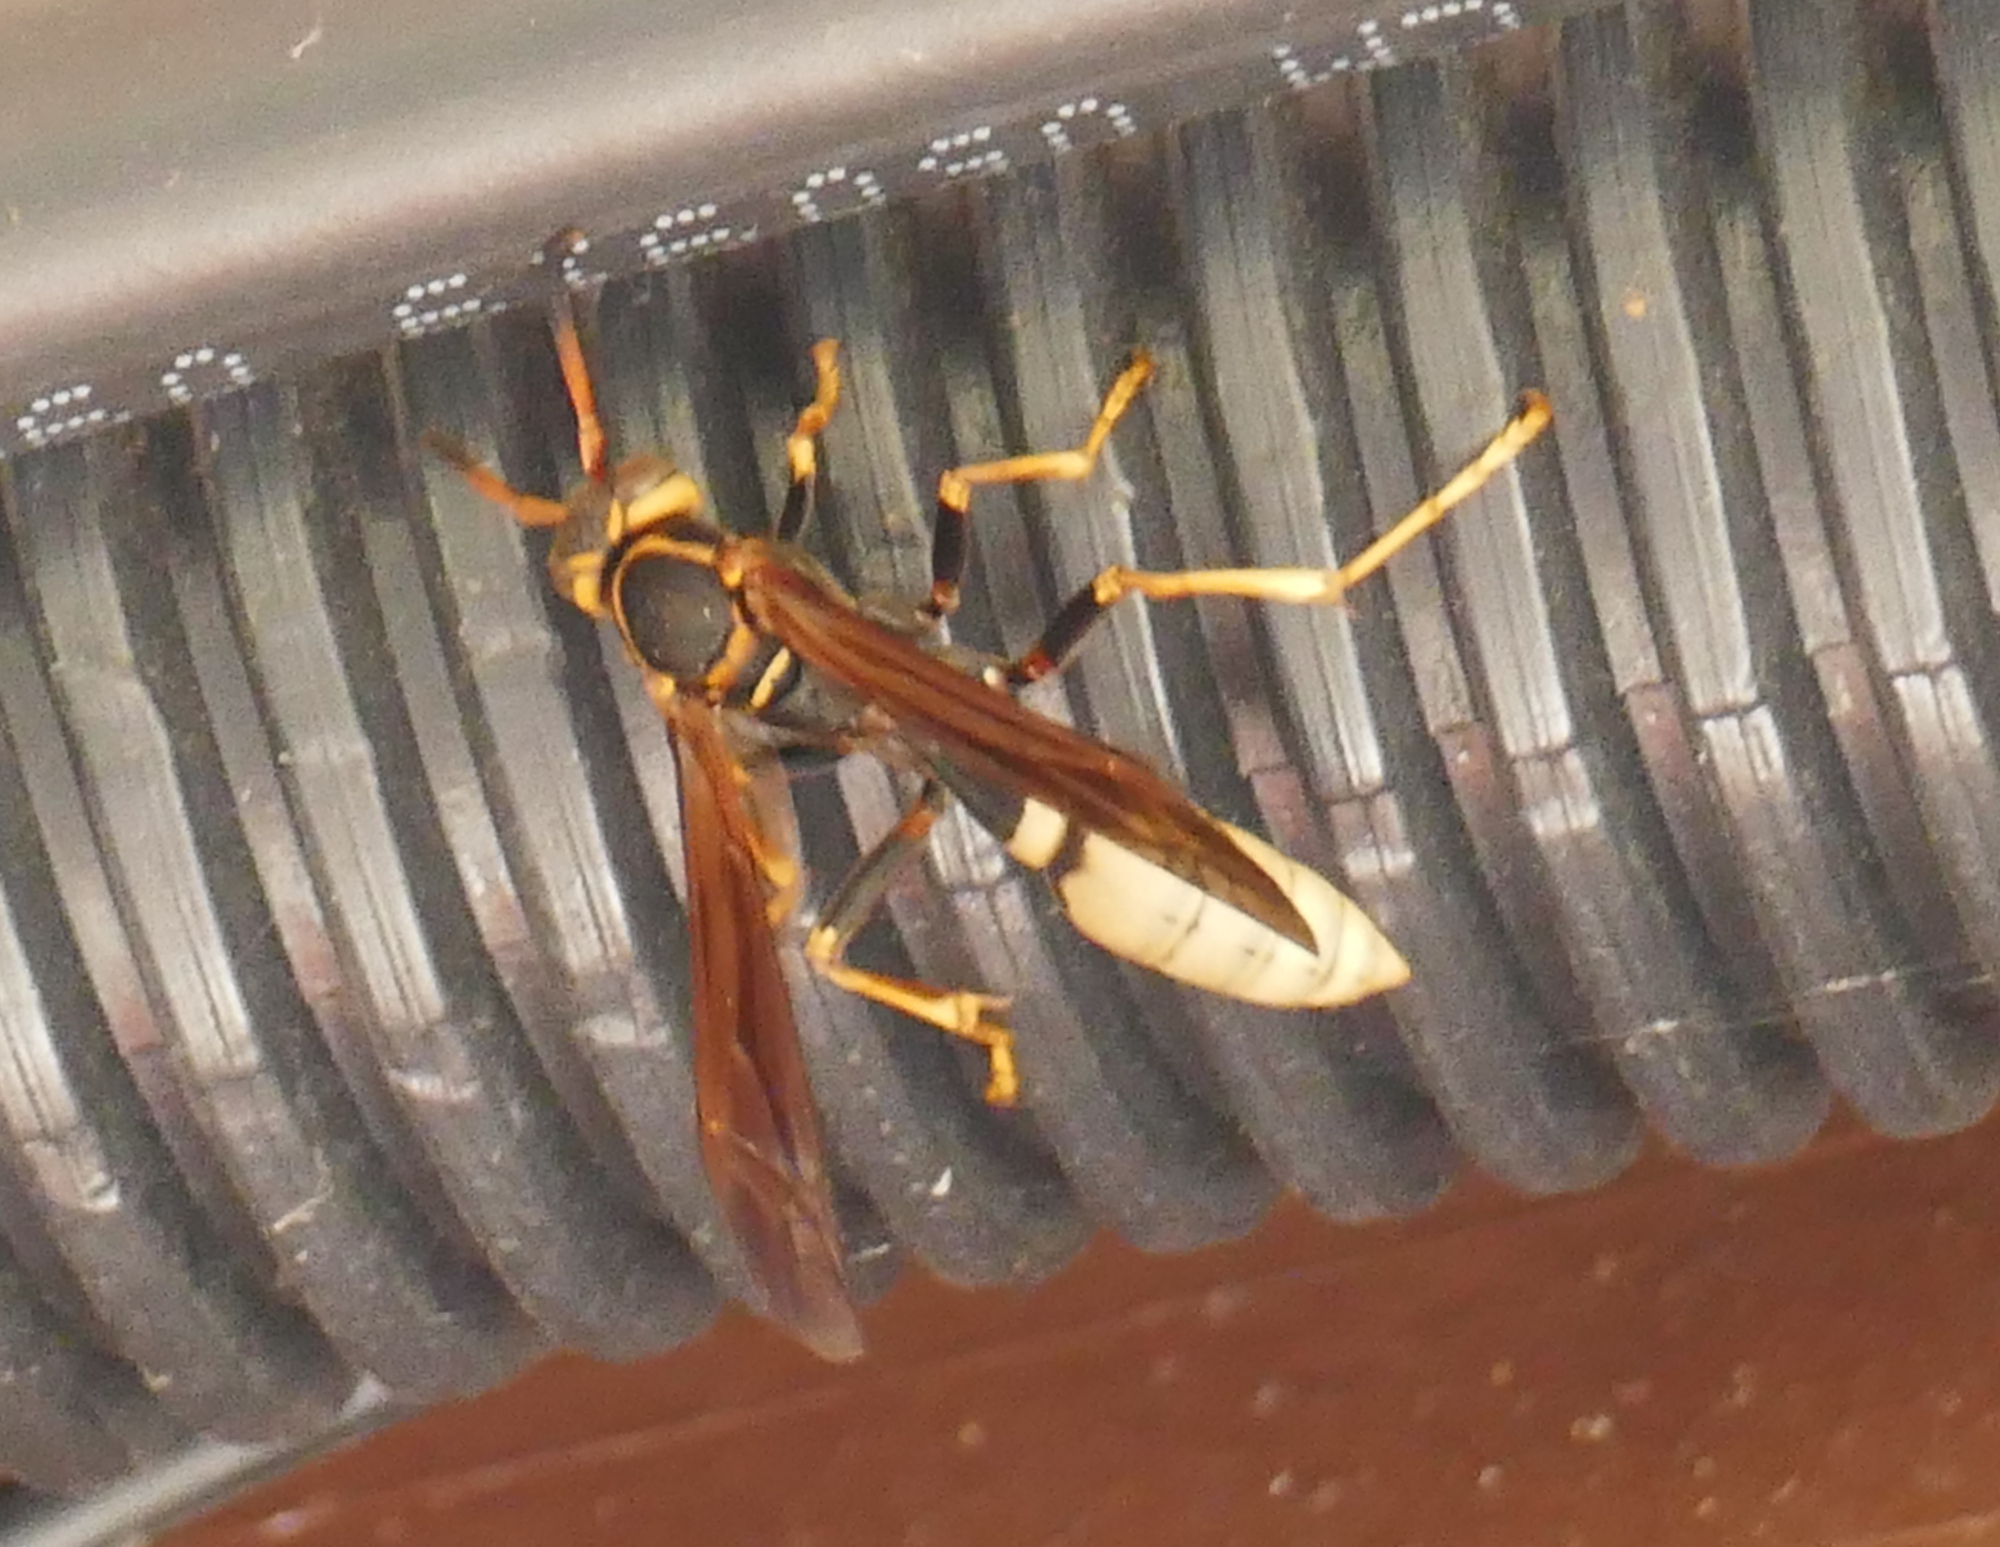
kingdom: Animalia
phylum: Arthropoda
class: Insecta
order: Hymenoptera
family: Vespidae
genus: Mischocyttarus
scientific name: Mischocyttarus navajo
